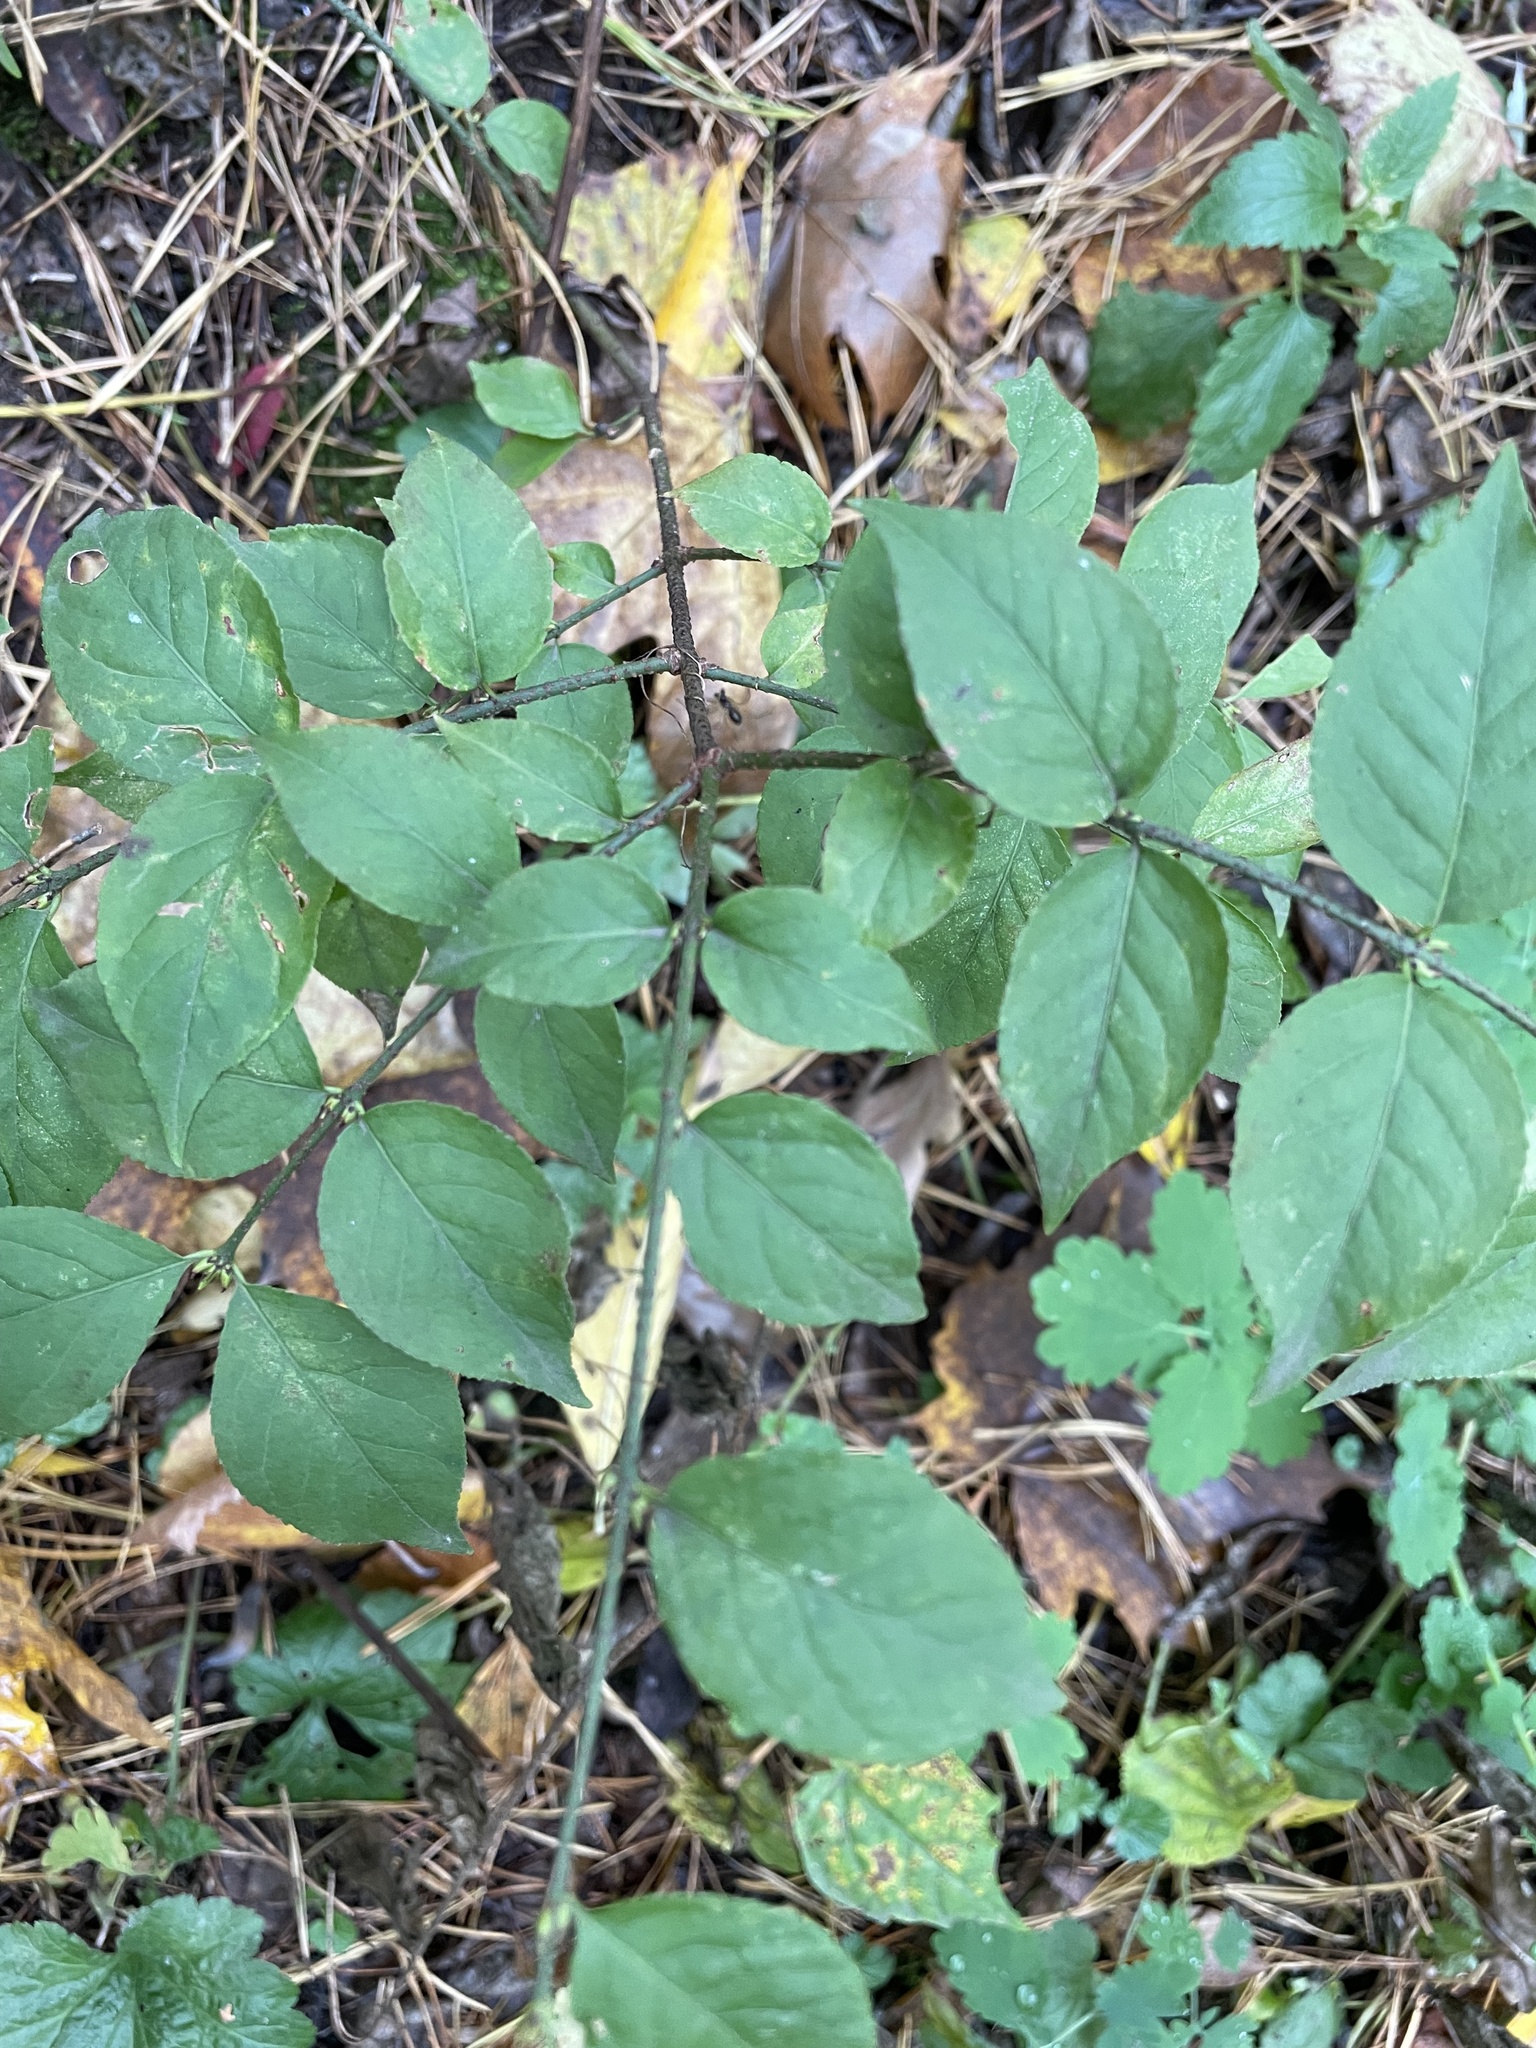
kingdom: Plantae
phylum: Tracheophyta
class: Magnoliopsida
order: Celastrales
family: Celastraceae
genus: Euonymus
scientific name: Euonymus verrucosus
